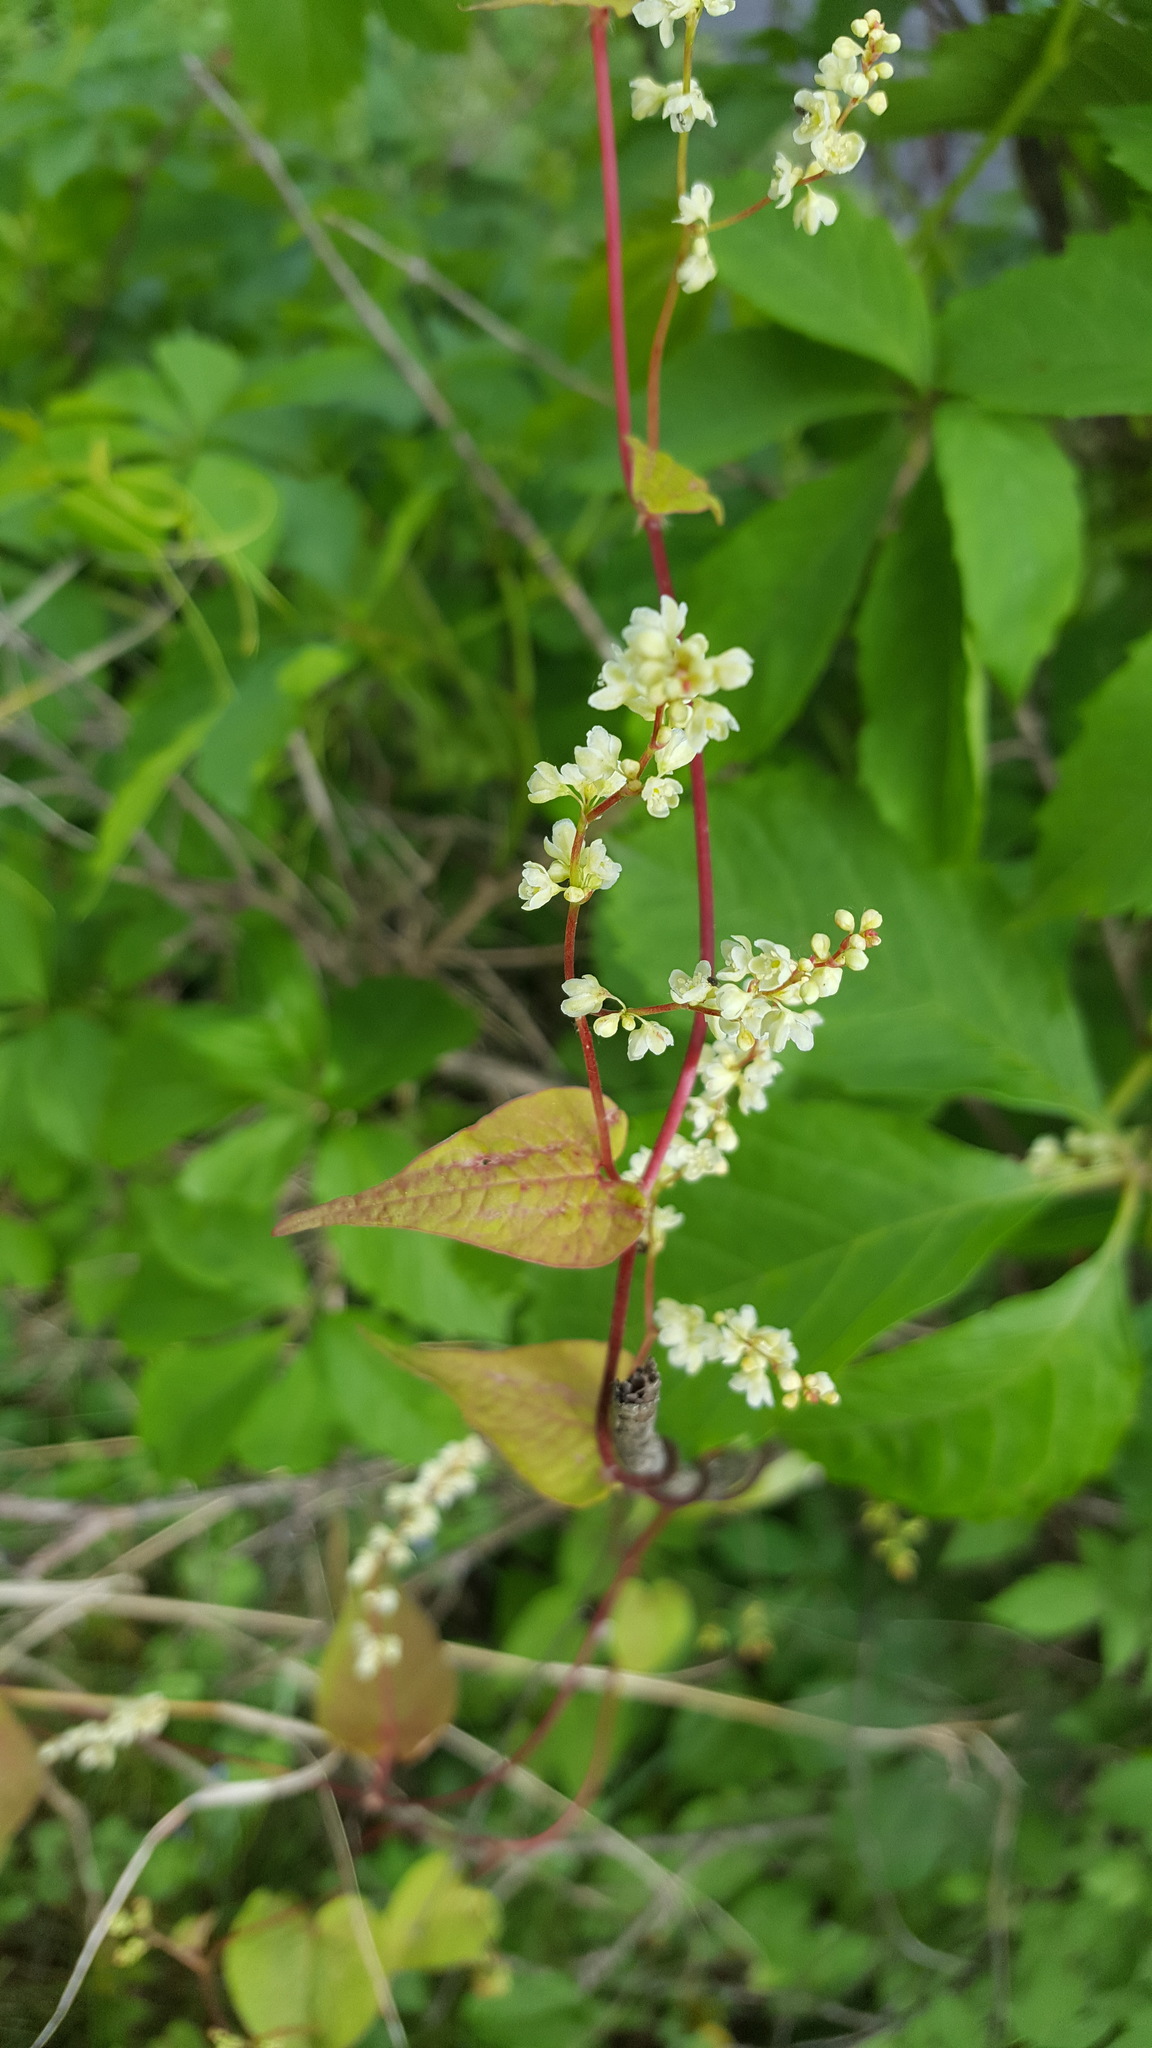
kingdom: Plantae
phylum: Tracheophyta
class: Magnoliopsida
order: Caryophyllales
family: Polygonaceae
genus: Fallopia
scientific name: Fallopia scandens
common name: Climbing false buckwheat
